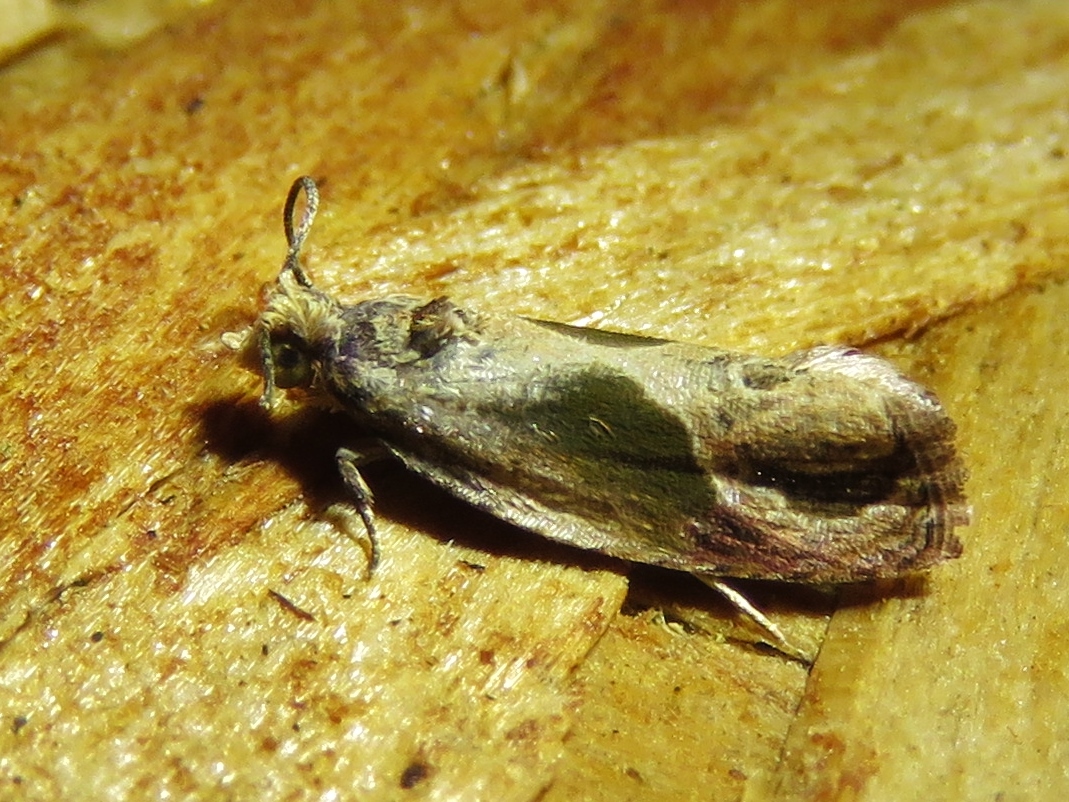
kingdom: Animalia
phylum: Arthropoda
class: Insecta
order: Lepidoptera
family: Tortricidae
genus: Eumarozia
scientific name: Eumarozia malachitana
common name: Sculptured moth
